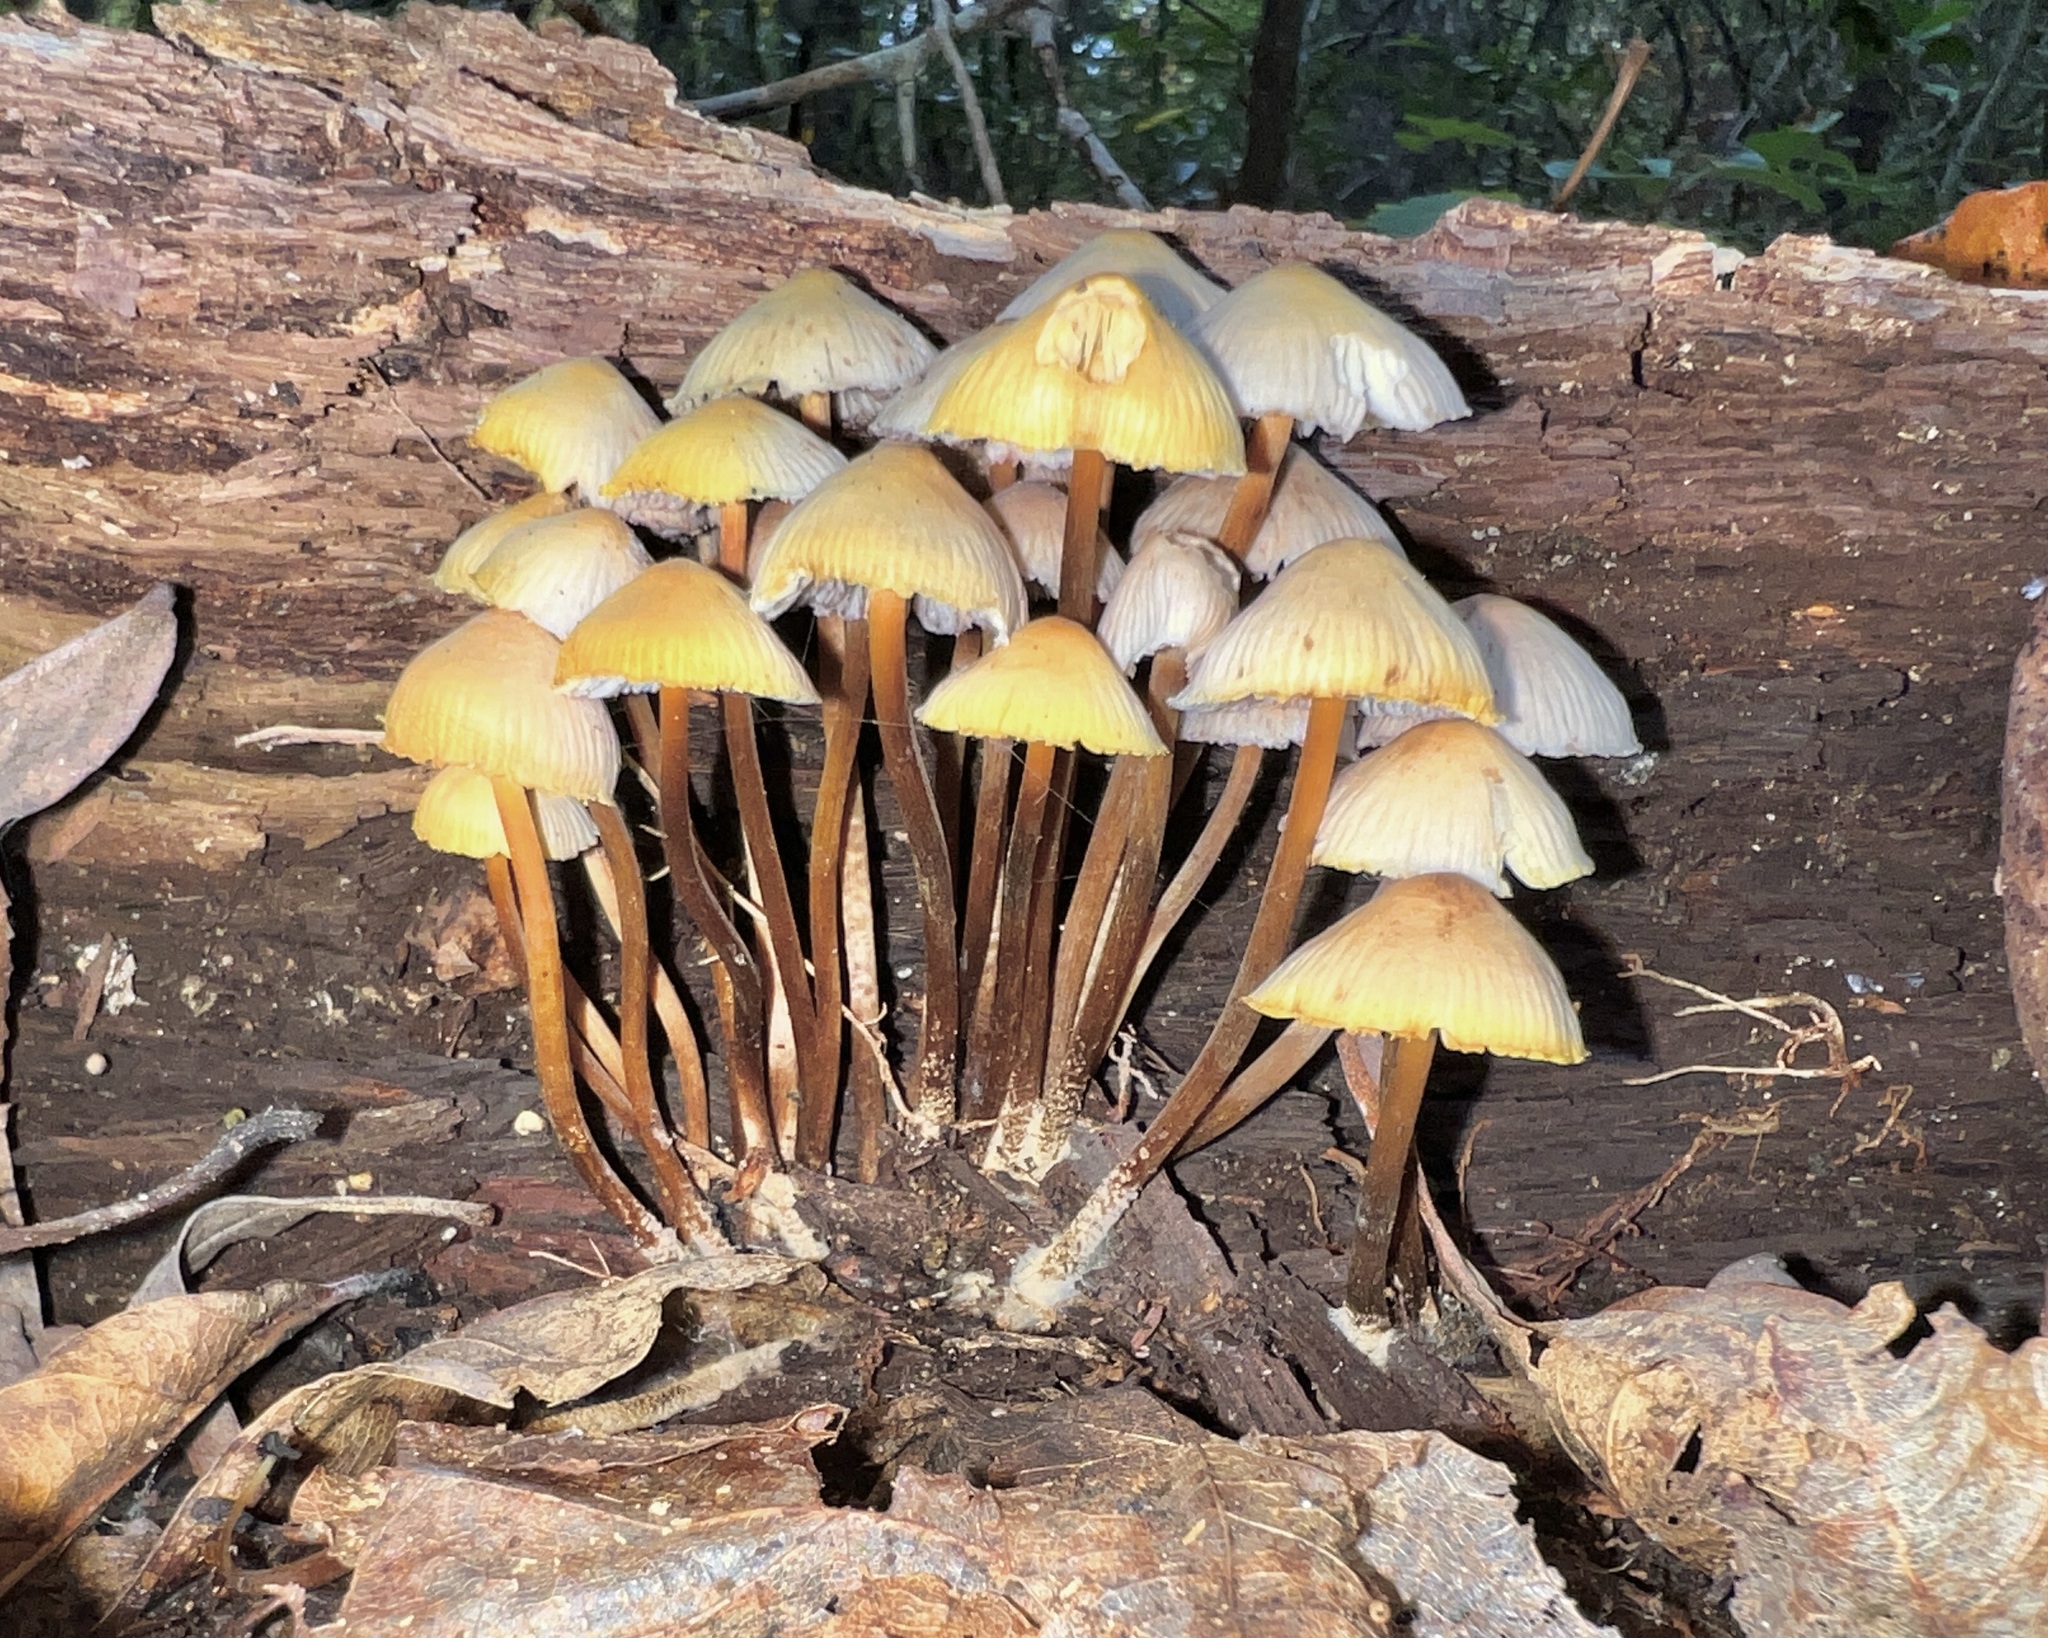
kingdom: Fungi
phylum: Basidiomycota
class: Agaricomycetes
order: Agaricales
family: Mycenaceae
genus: Mycena
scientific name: Mycena inclinata
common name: Clustered bonnet
